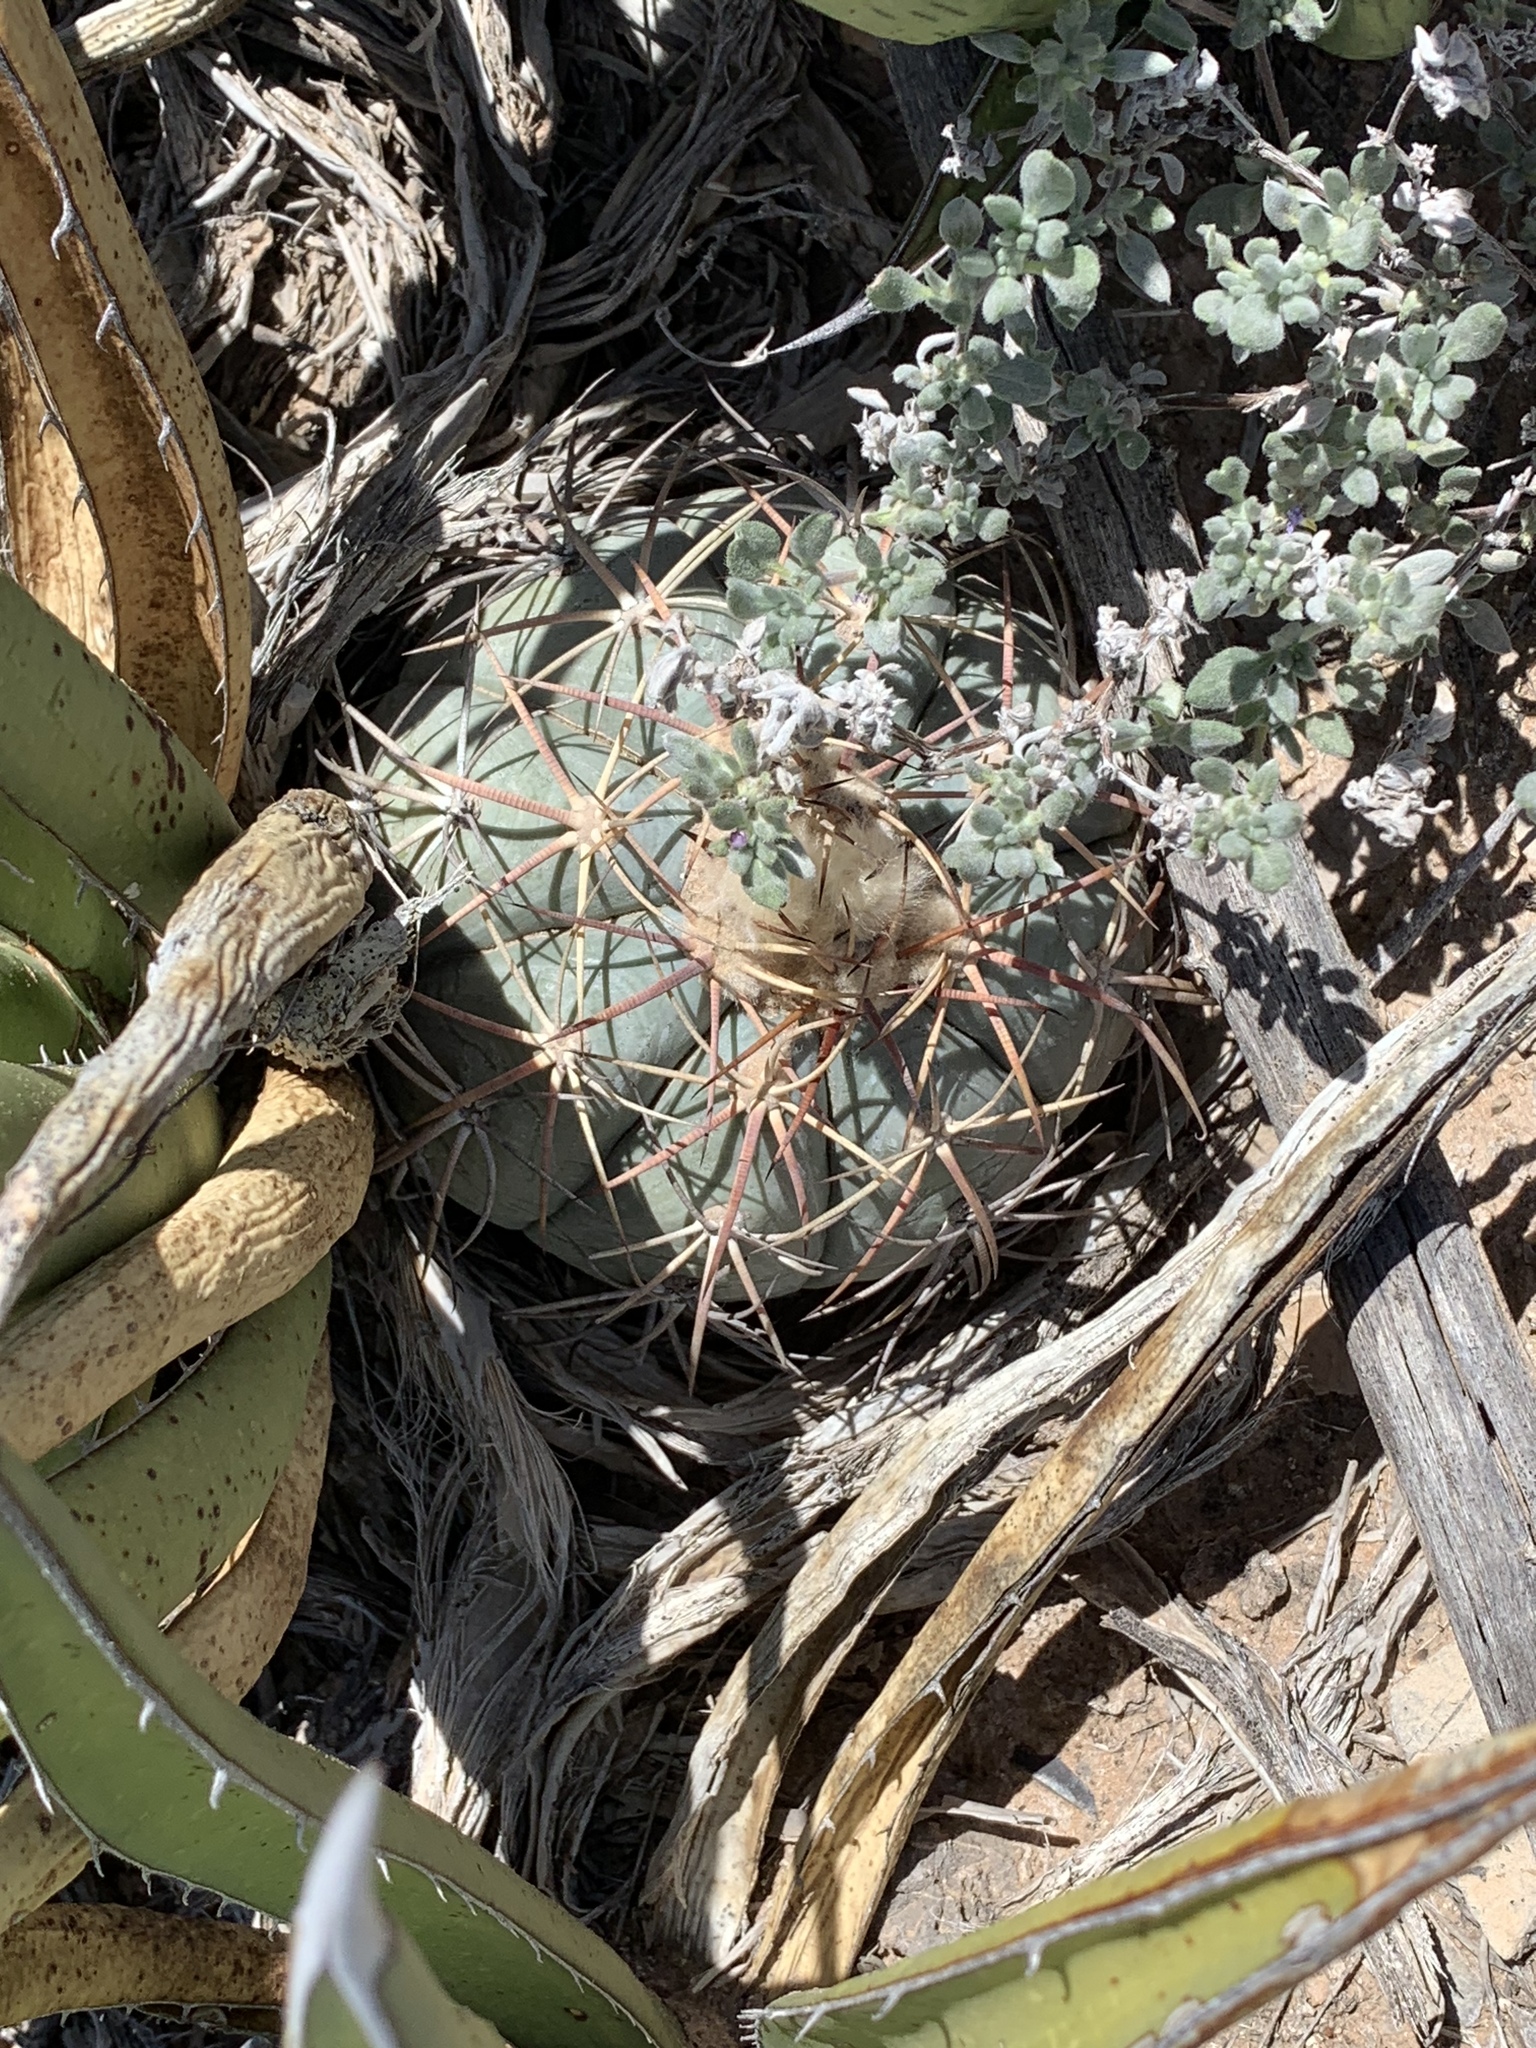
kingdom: Plantae
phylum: Tracheophyta
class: Magnoliopsida
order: Caryophyllales
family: Cactaceae
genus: Echinocactus
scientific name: Echinocactus horizonthalonius
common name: Devilshead
